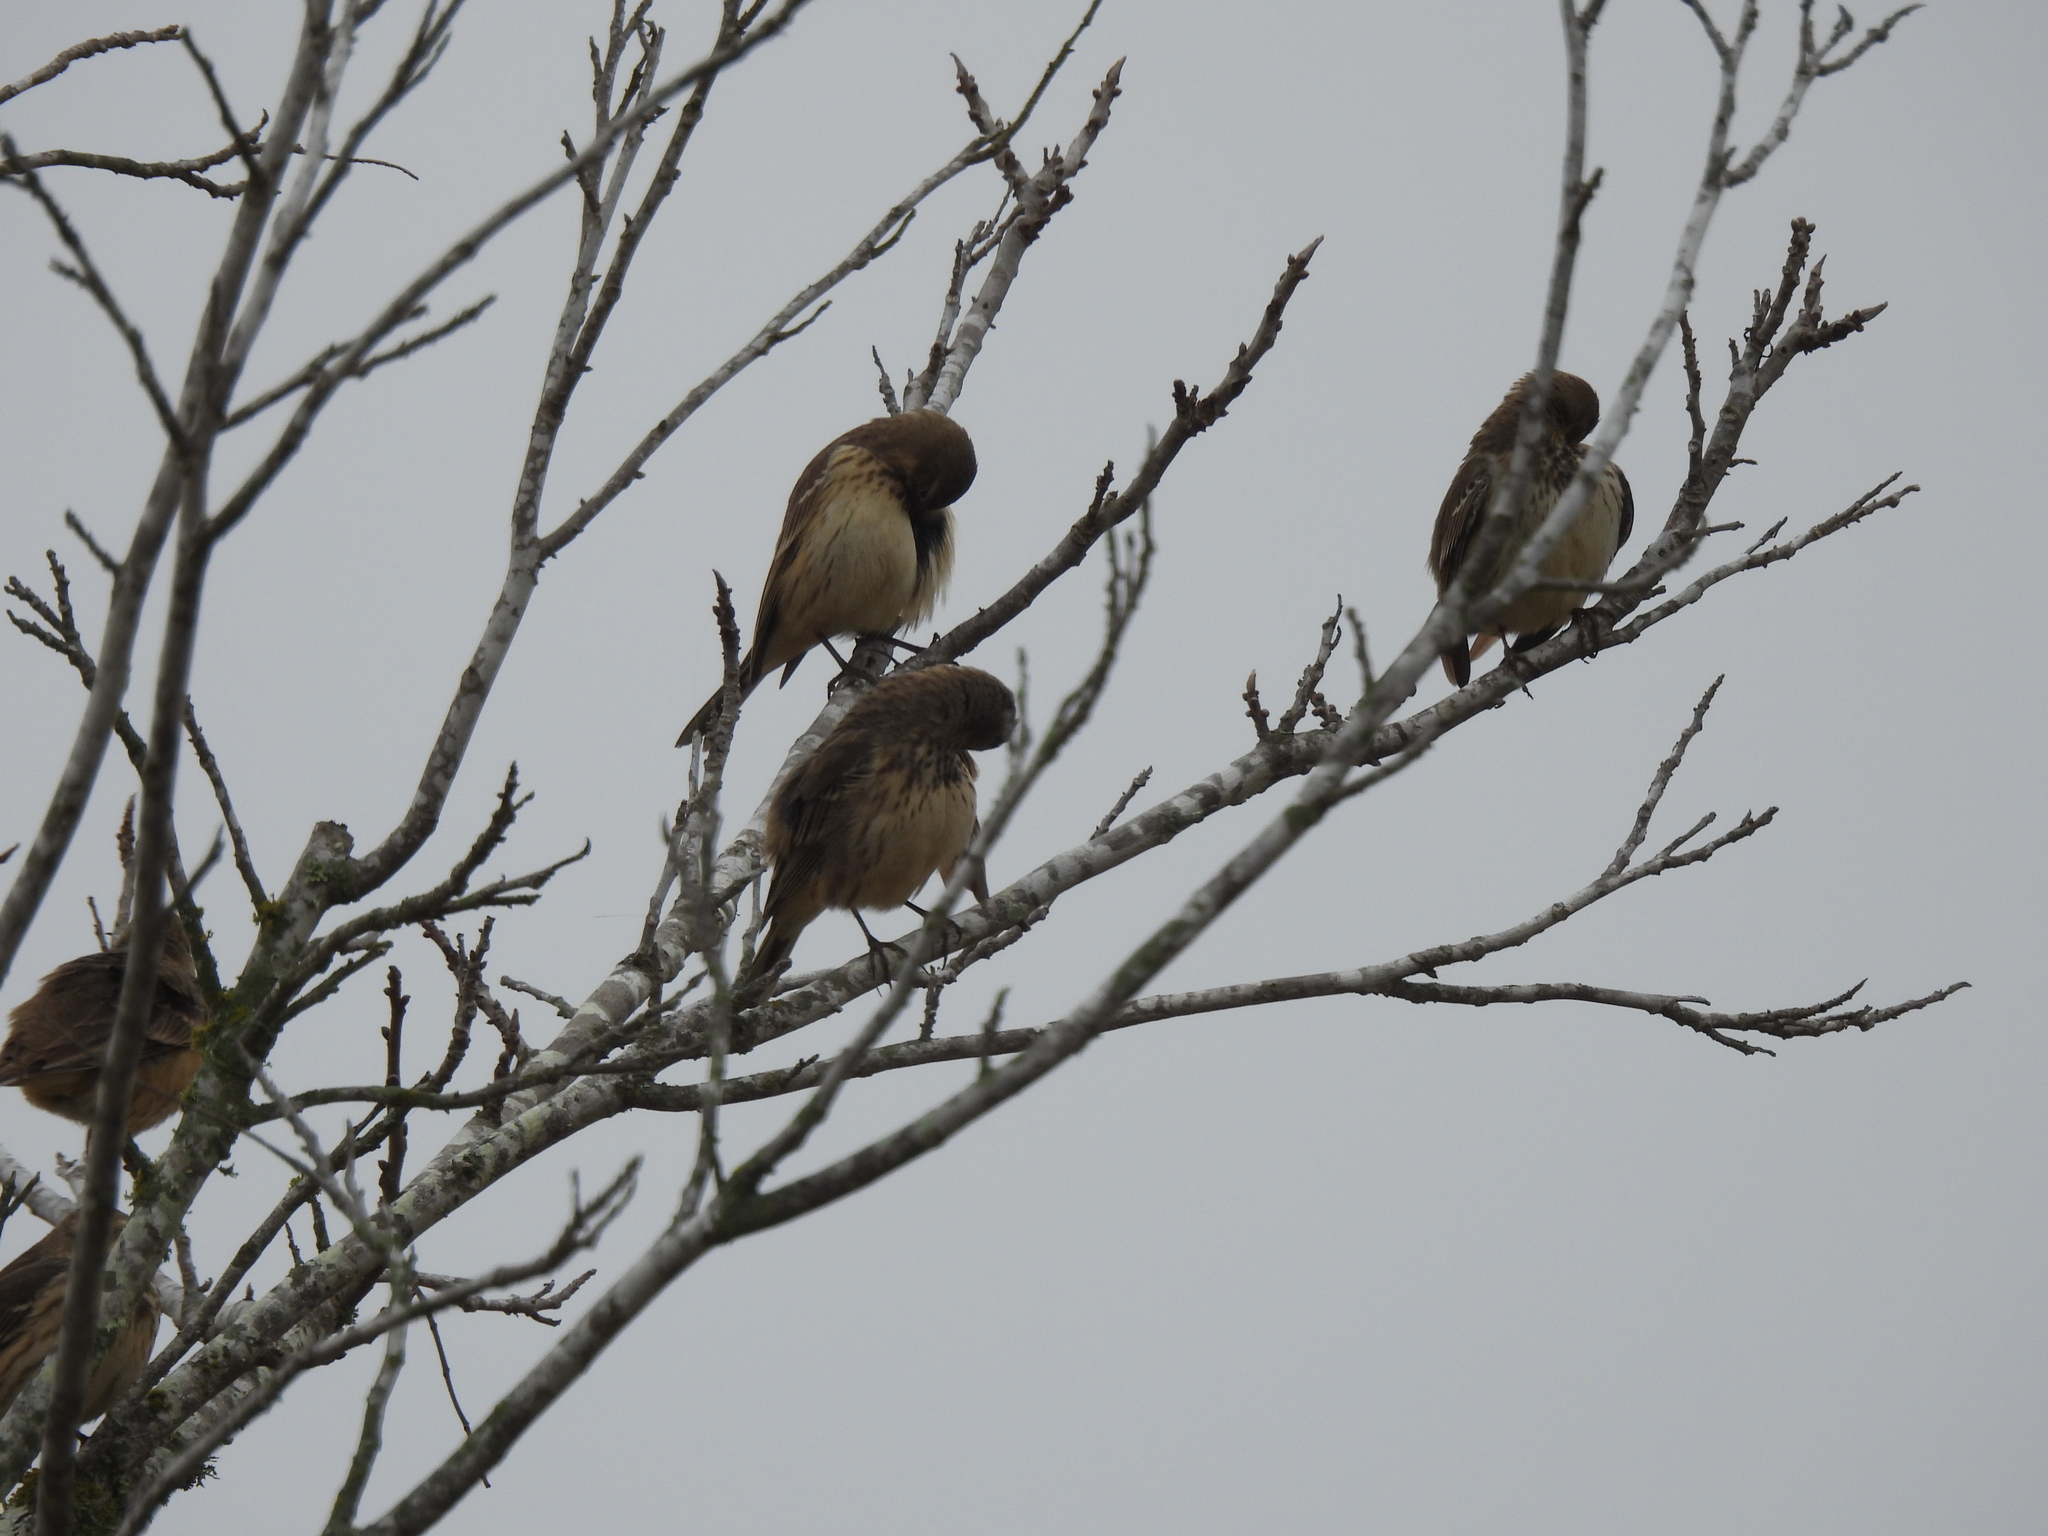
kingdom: Animalia
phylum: Chordata
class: Aves
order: Passeriformes
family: Motacillidae
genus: Anthus
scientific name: Anthus rubescens
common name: Buff-bellied pipit
